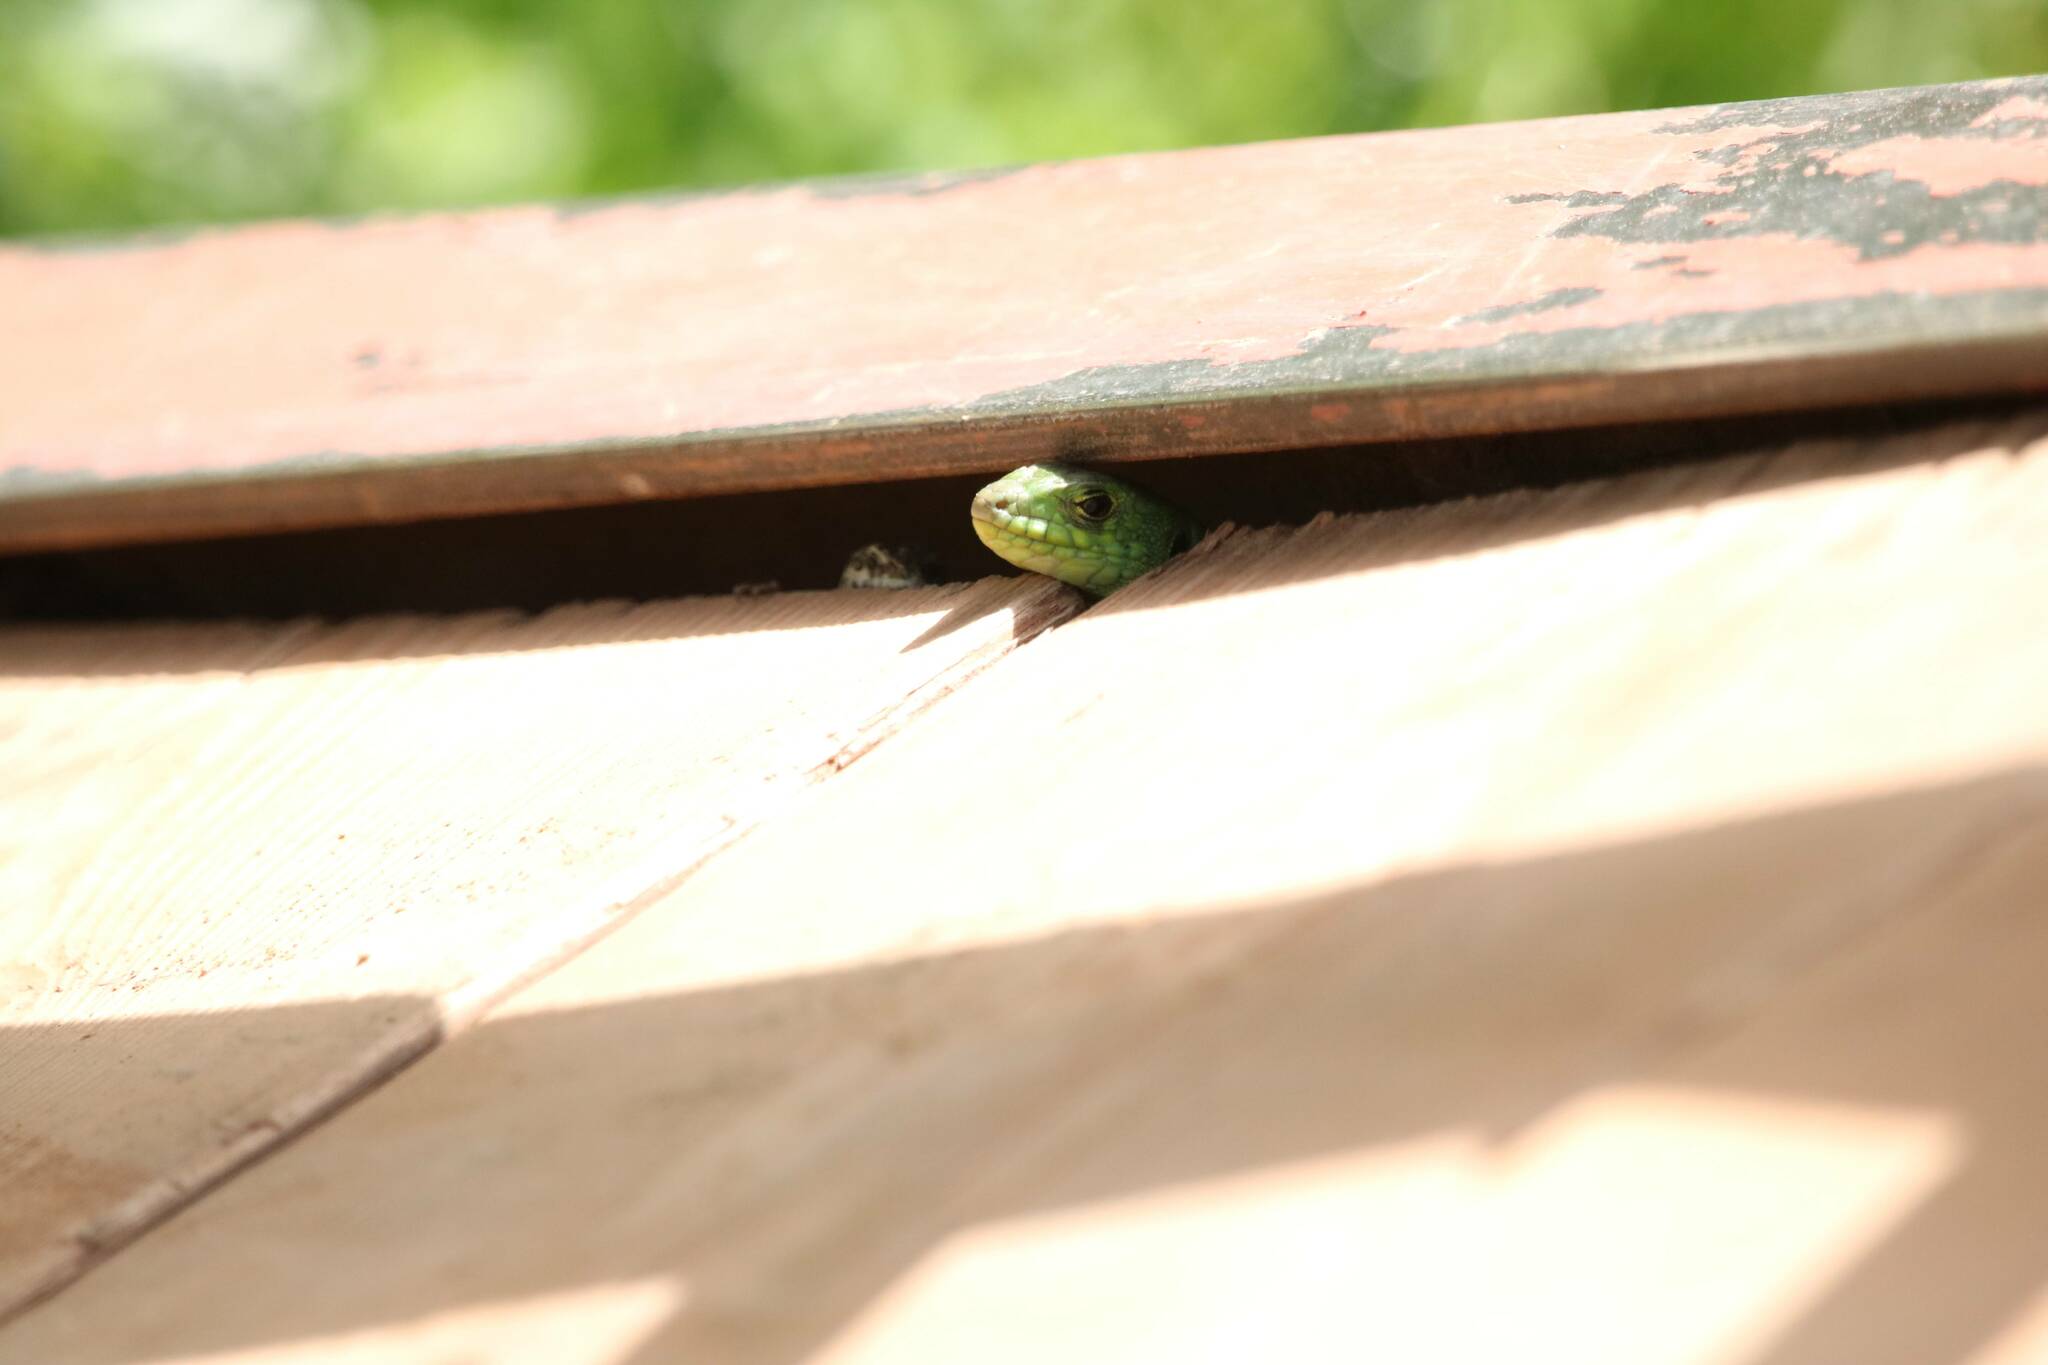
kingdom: Animalia
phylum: Chordata
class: Squamata
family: Lacertidae
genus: Timon
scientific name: Timon pater
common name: North african ocellated lizard
